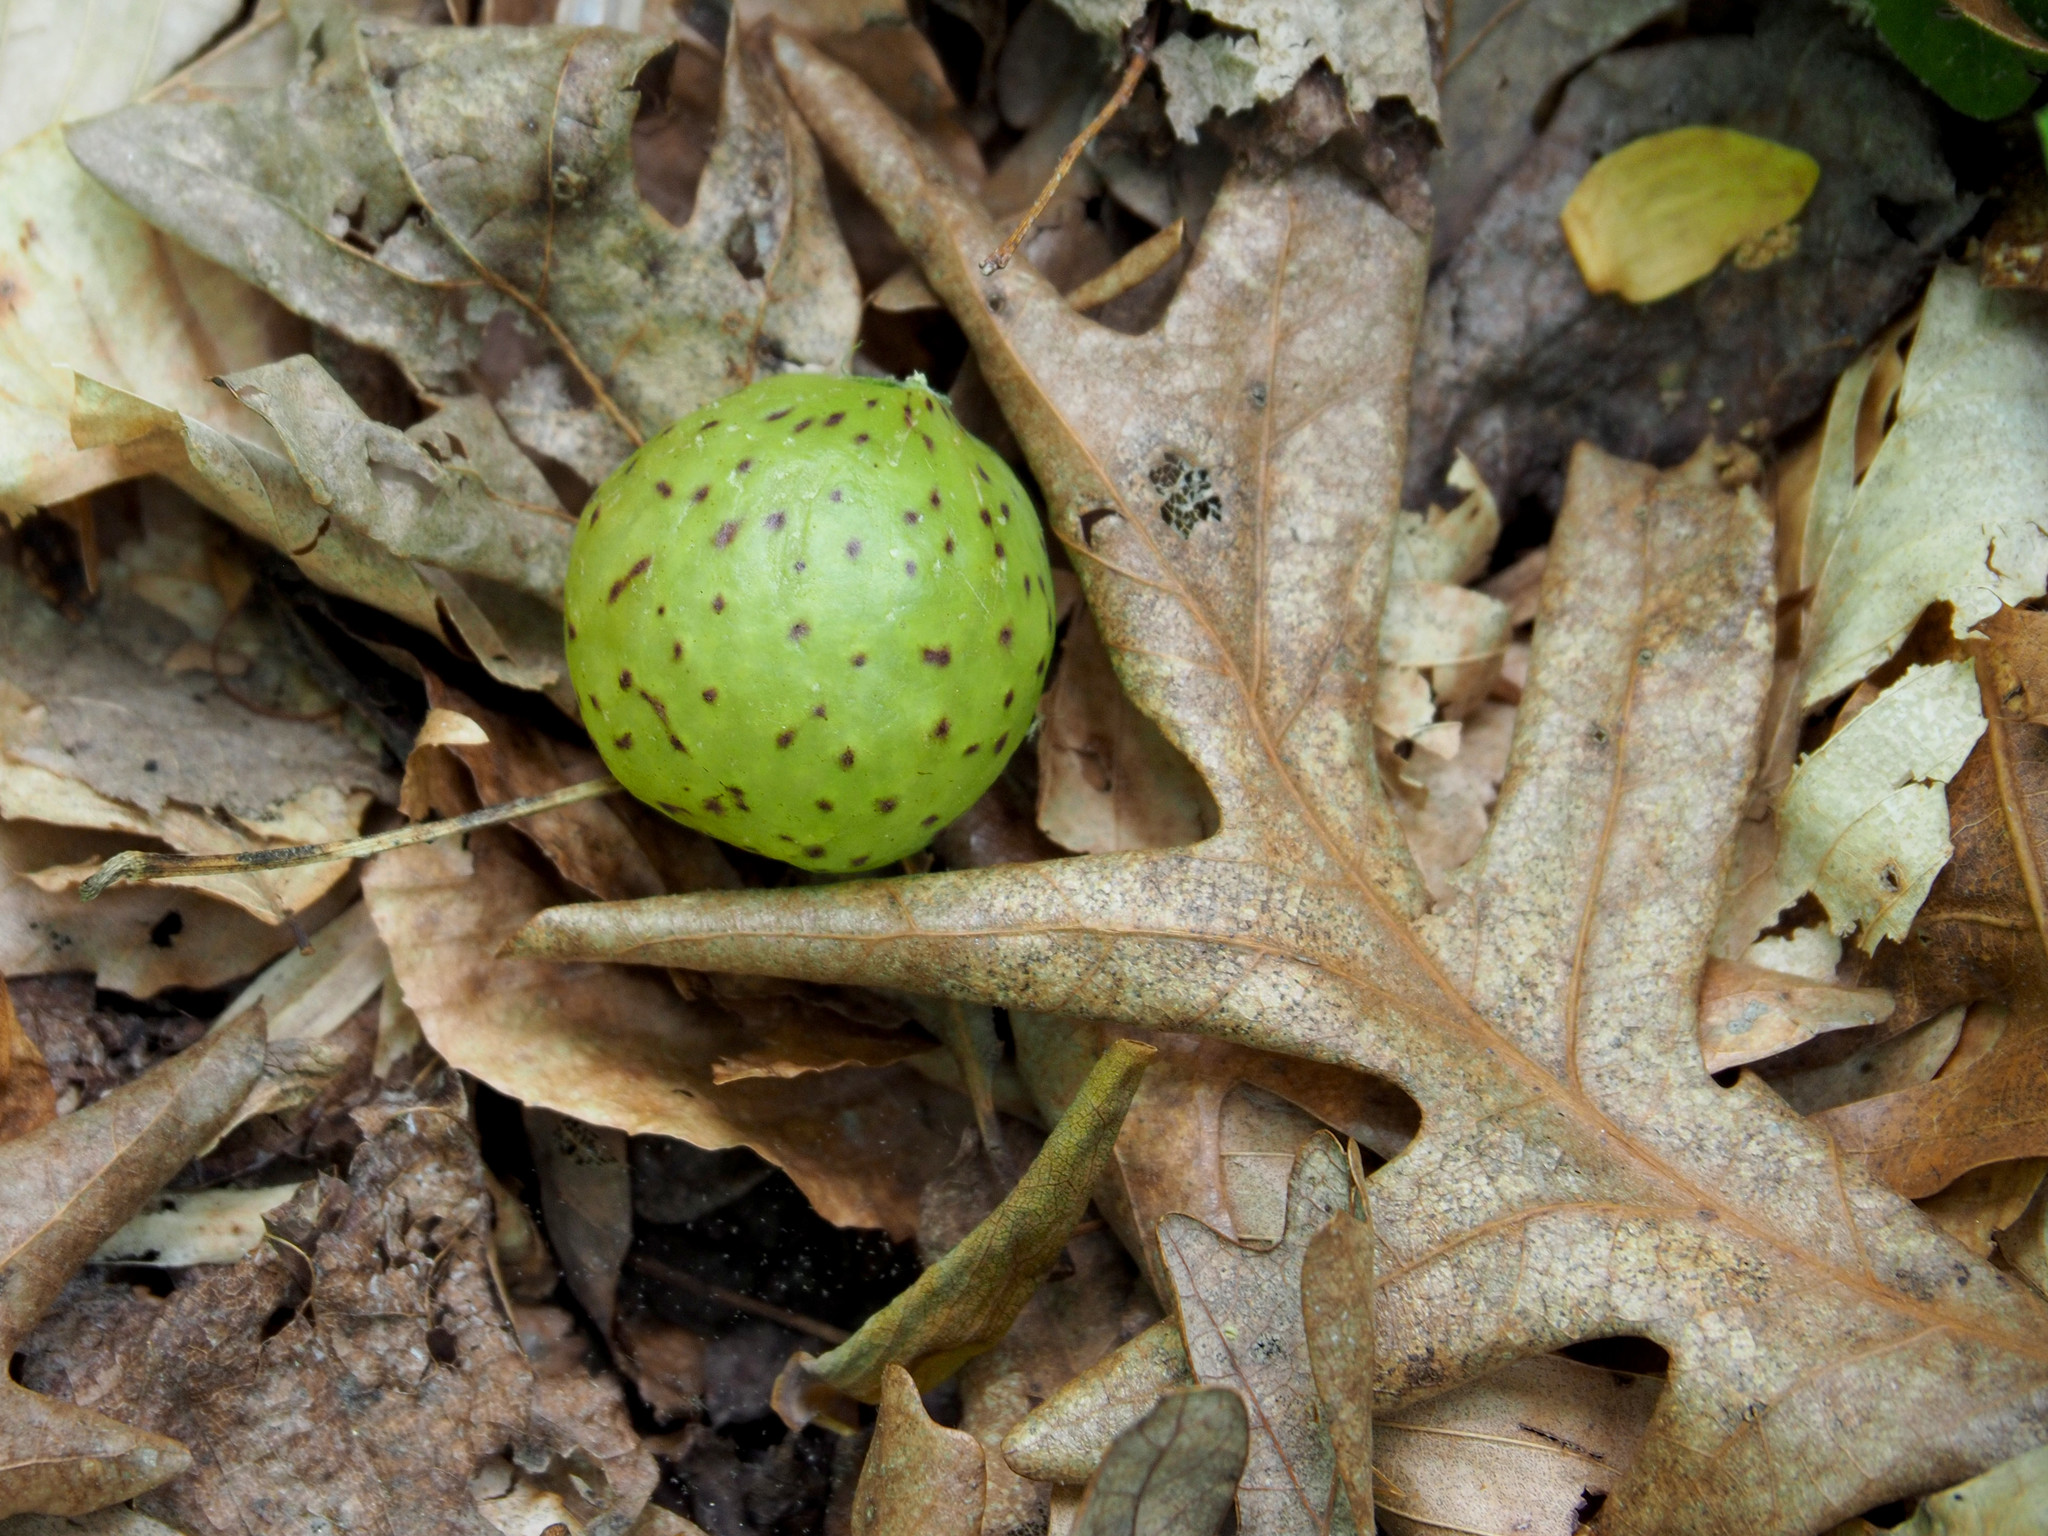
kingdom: Animalia
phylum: Arthropoda
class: Insecta
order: Hymenoptera
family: Cynipidae
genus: Amphibolips
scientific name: Amphibolips
